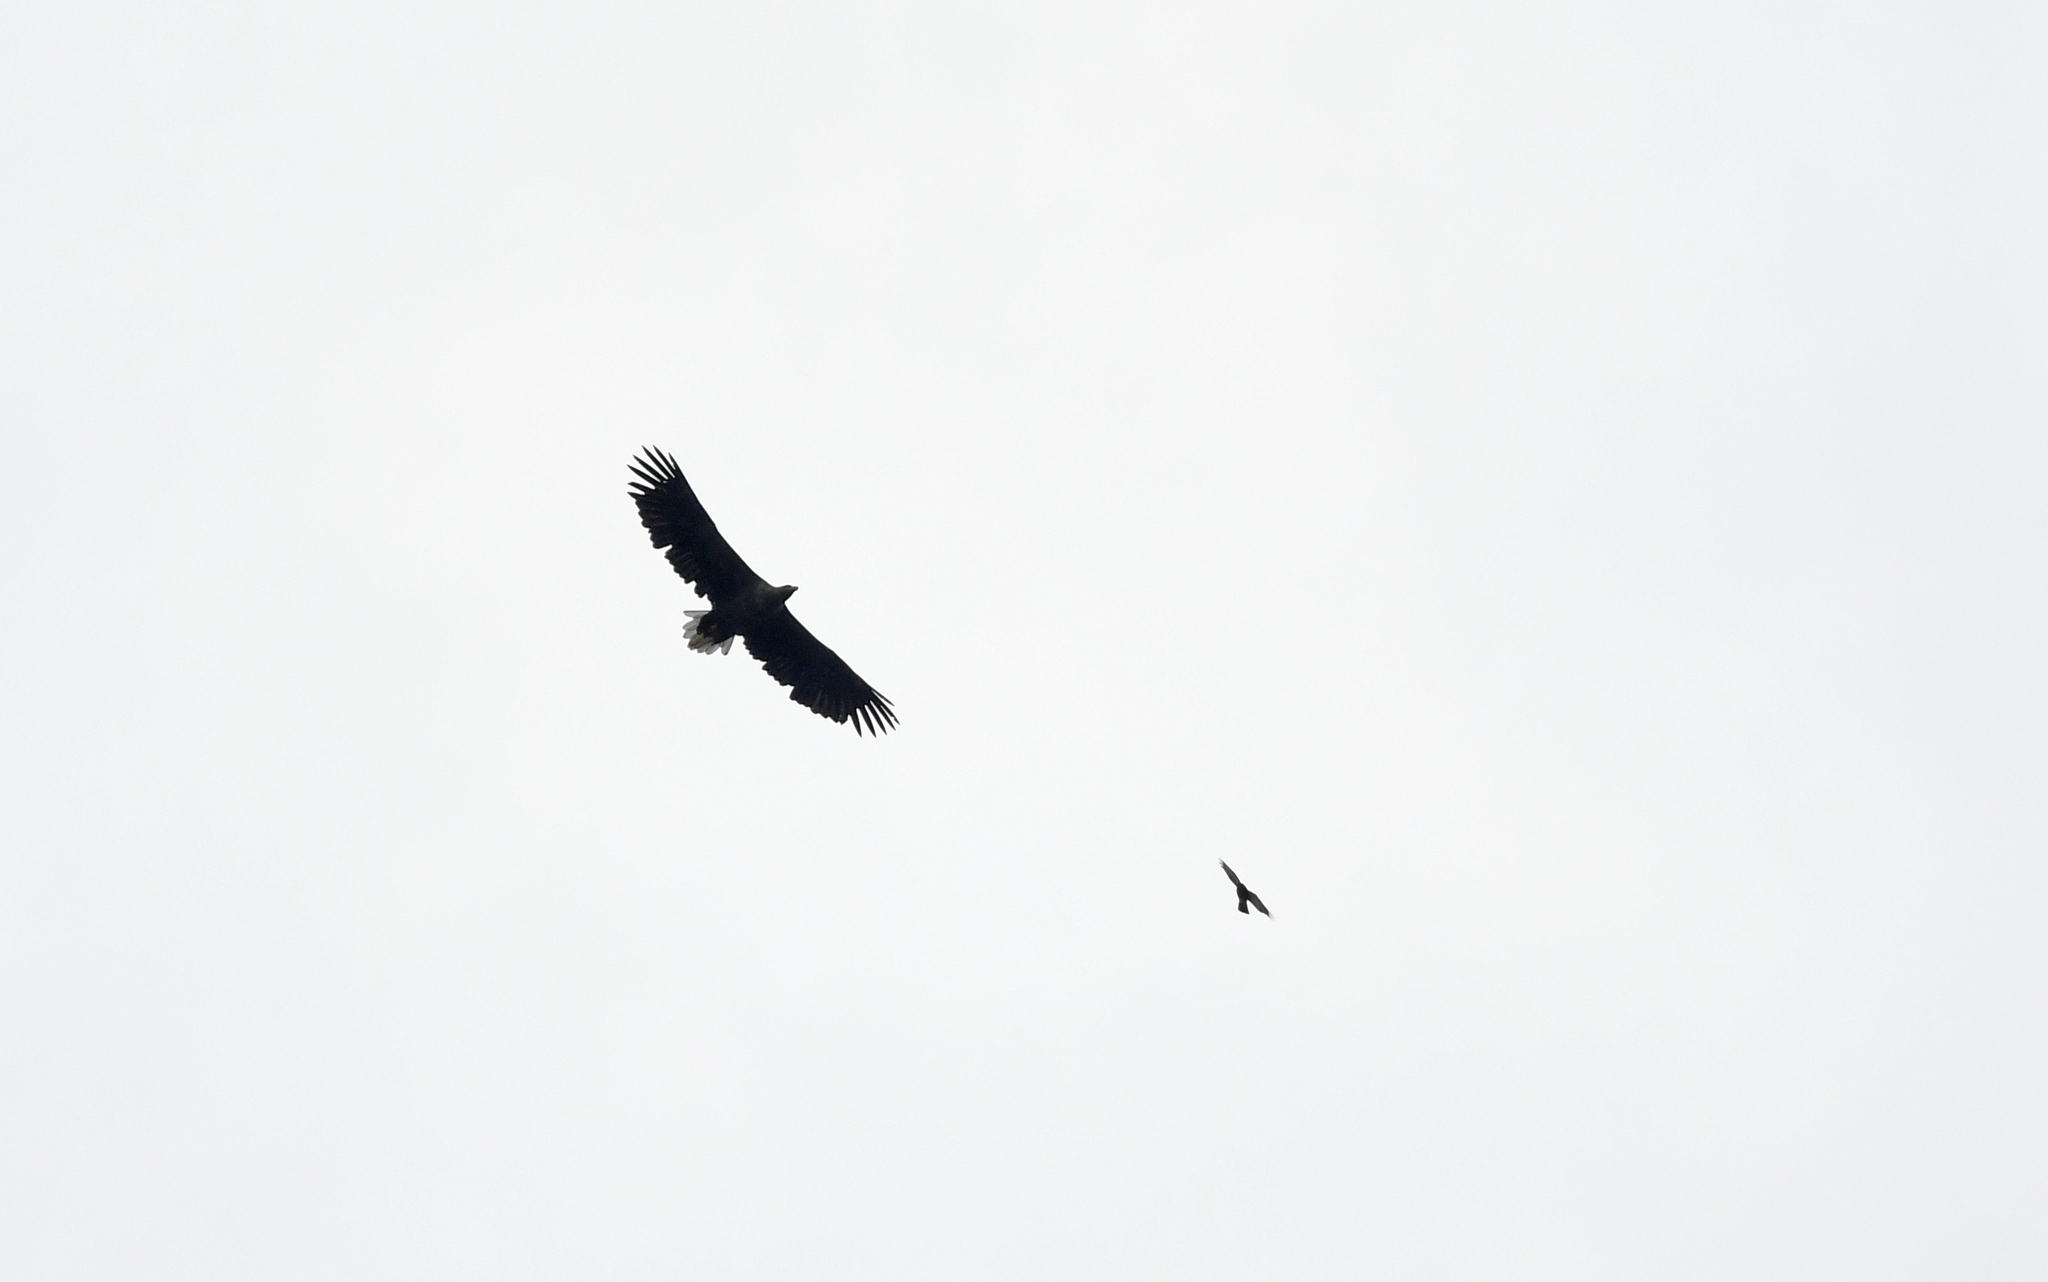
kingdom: Animalia
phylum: Chordata
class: Aves
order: Accipitriformes
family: Accipitridae
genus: Haliaeetus
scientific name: Haliaeetus albicilla
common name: White-tailed eagle
